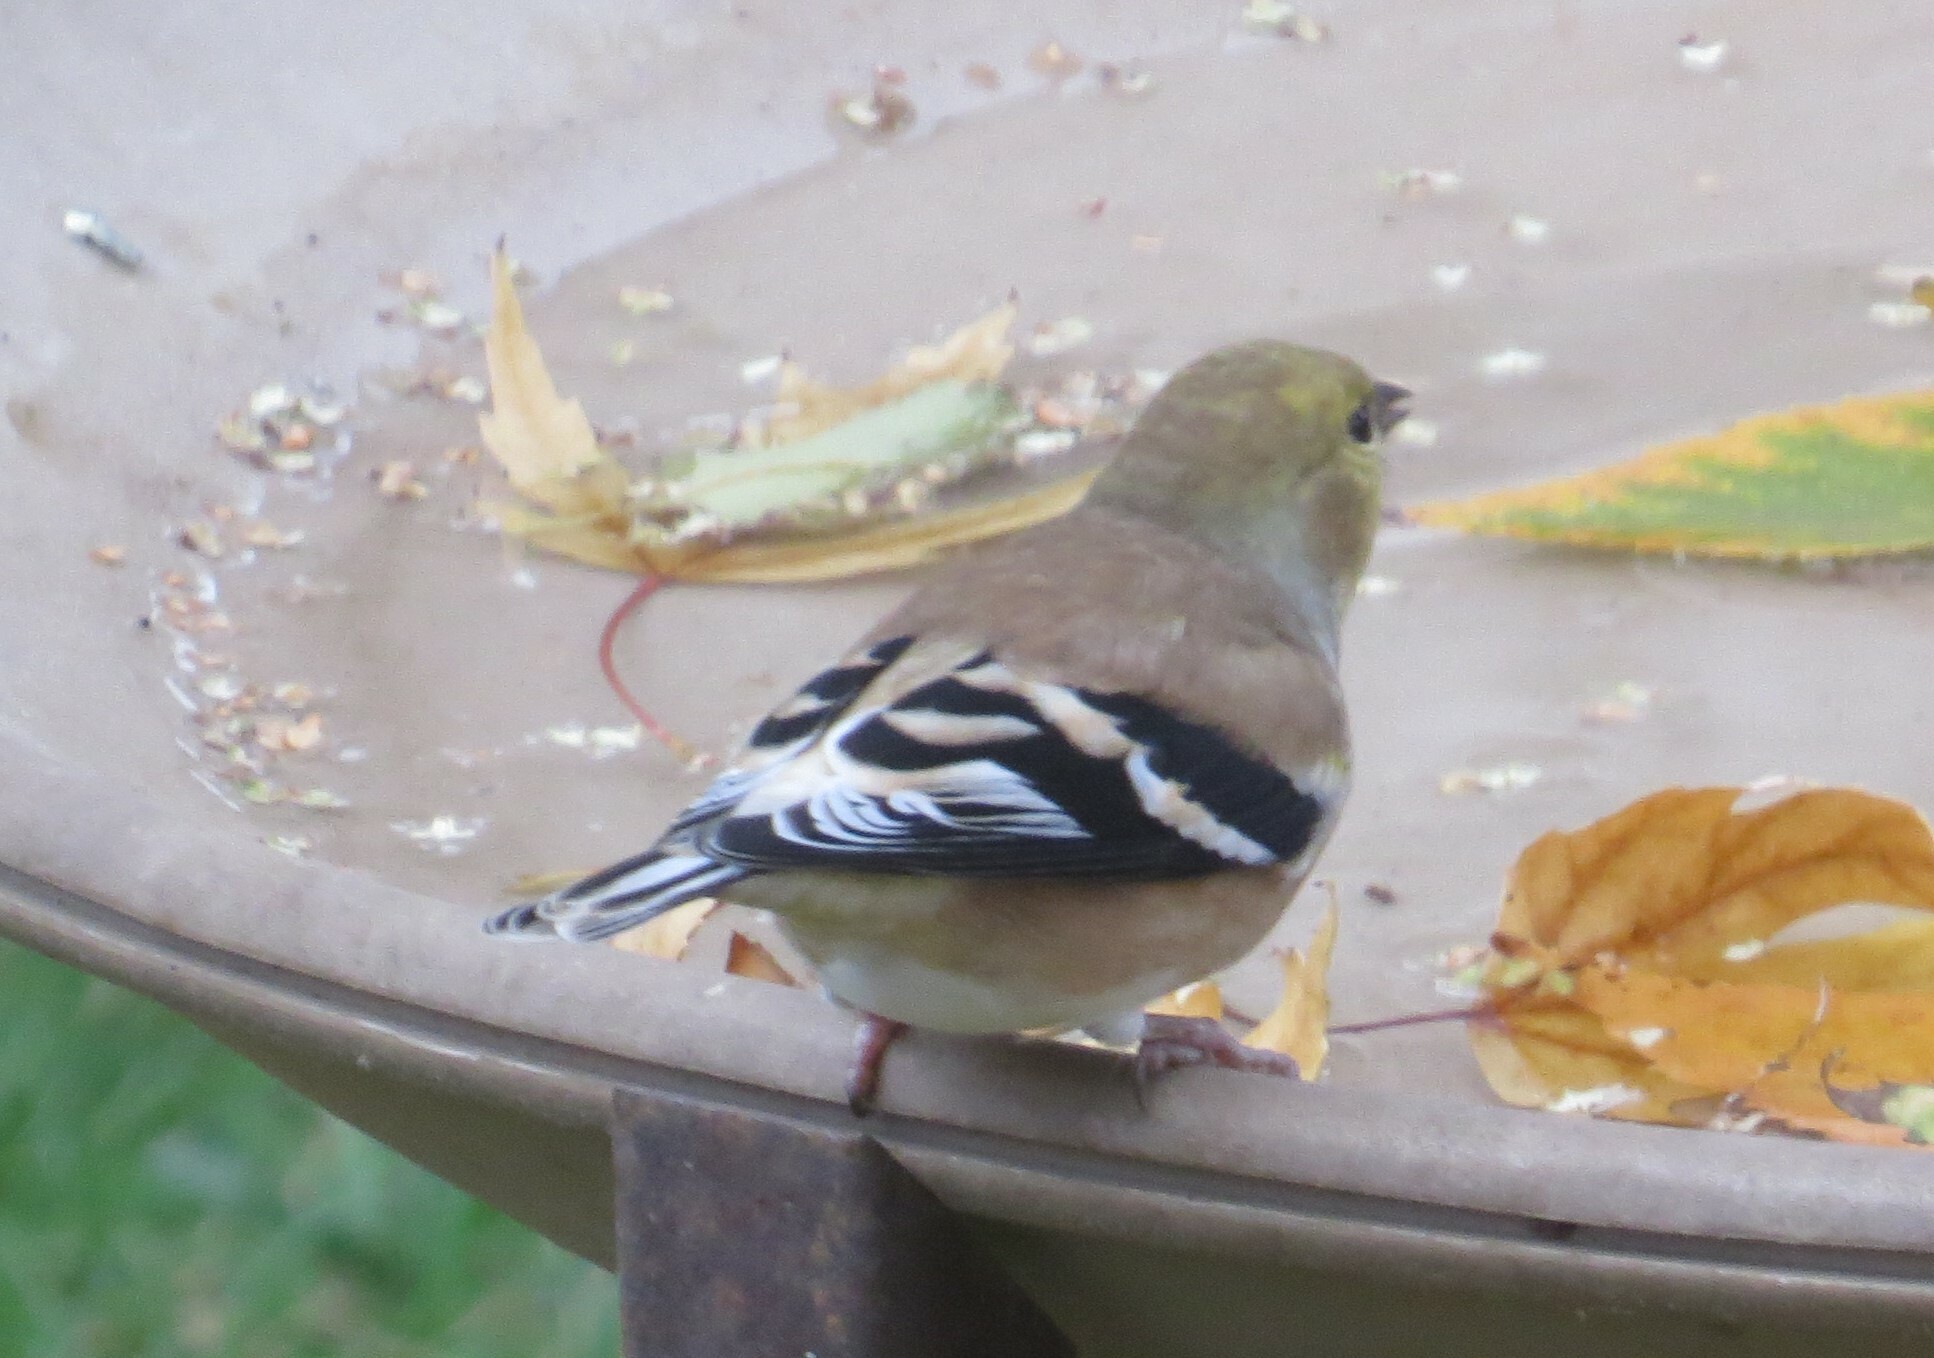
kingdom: Animalia
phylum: Chordata
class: Aves
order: Passeriformes
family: Fringillidae
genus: Spinus
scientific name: Spinus tristis
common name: American goldfinch
